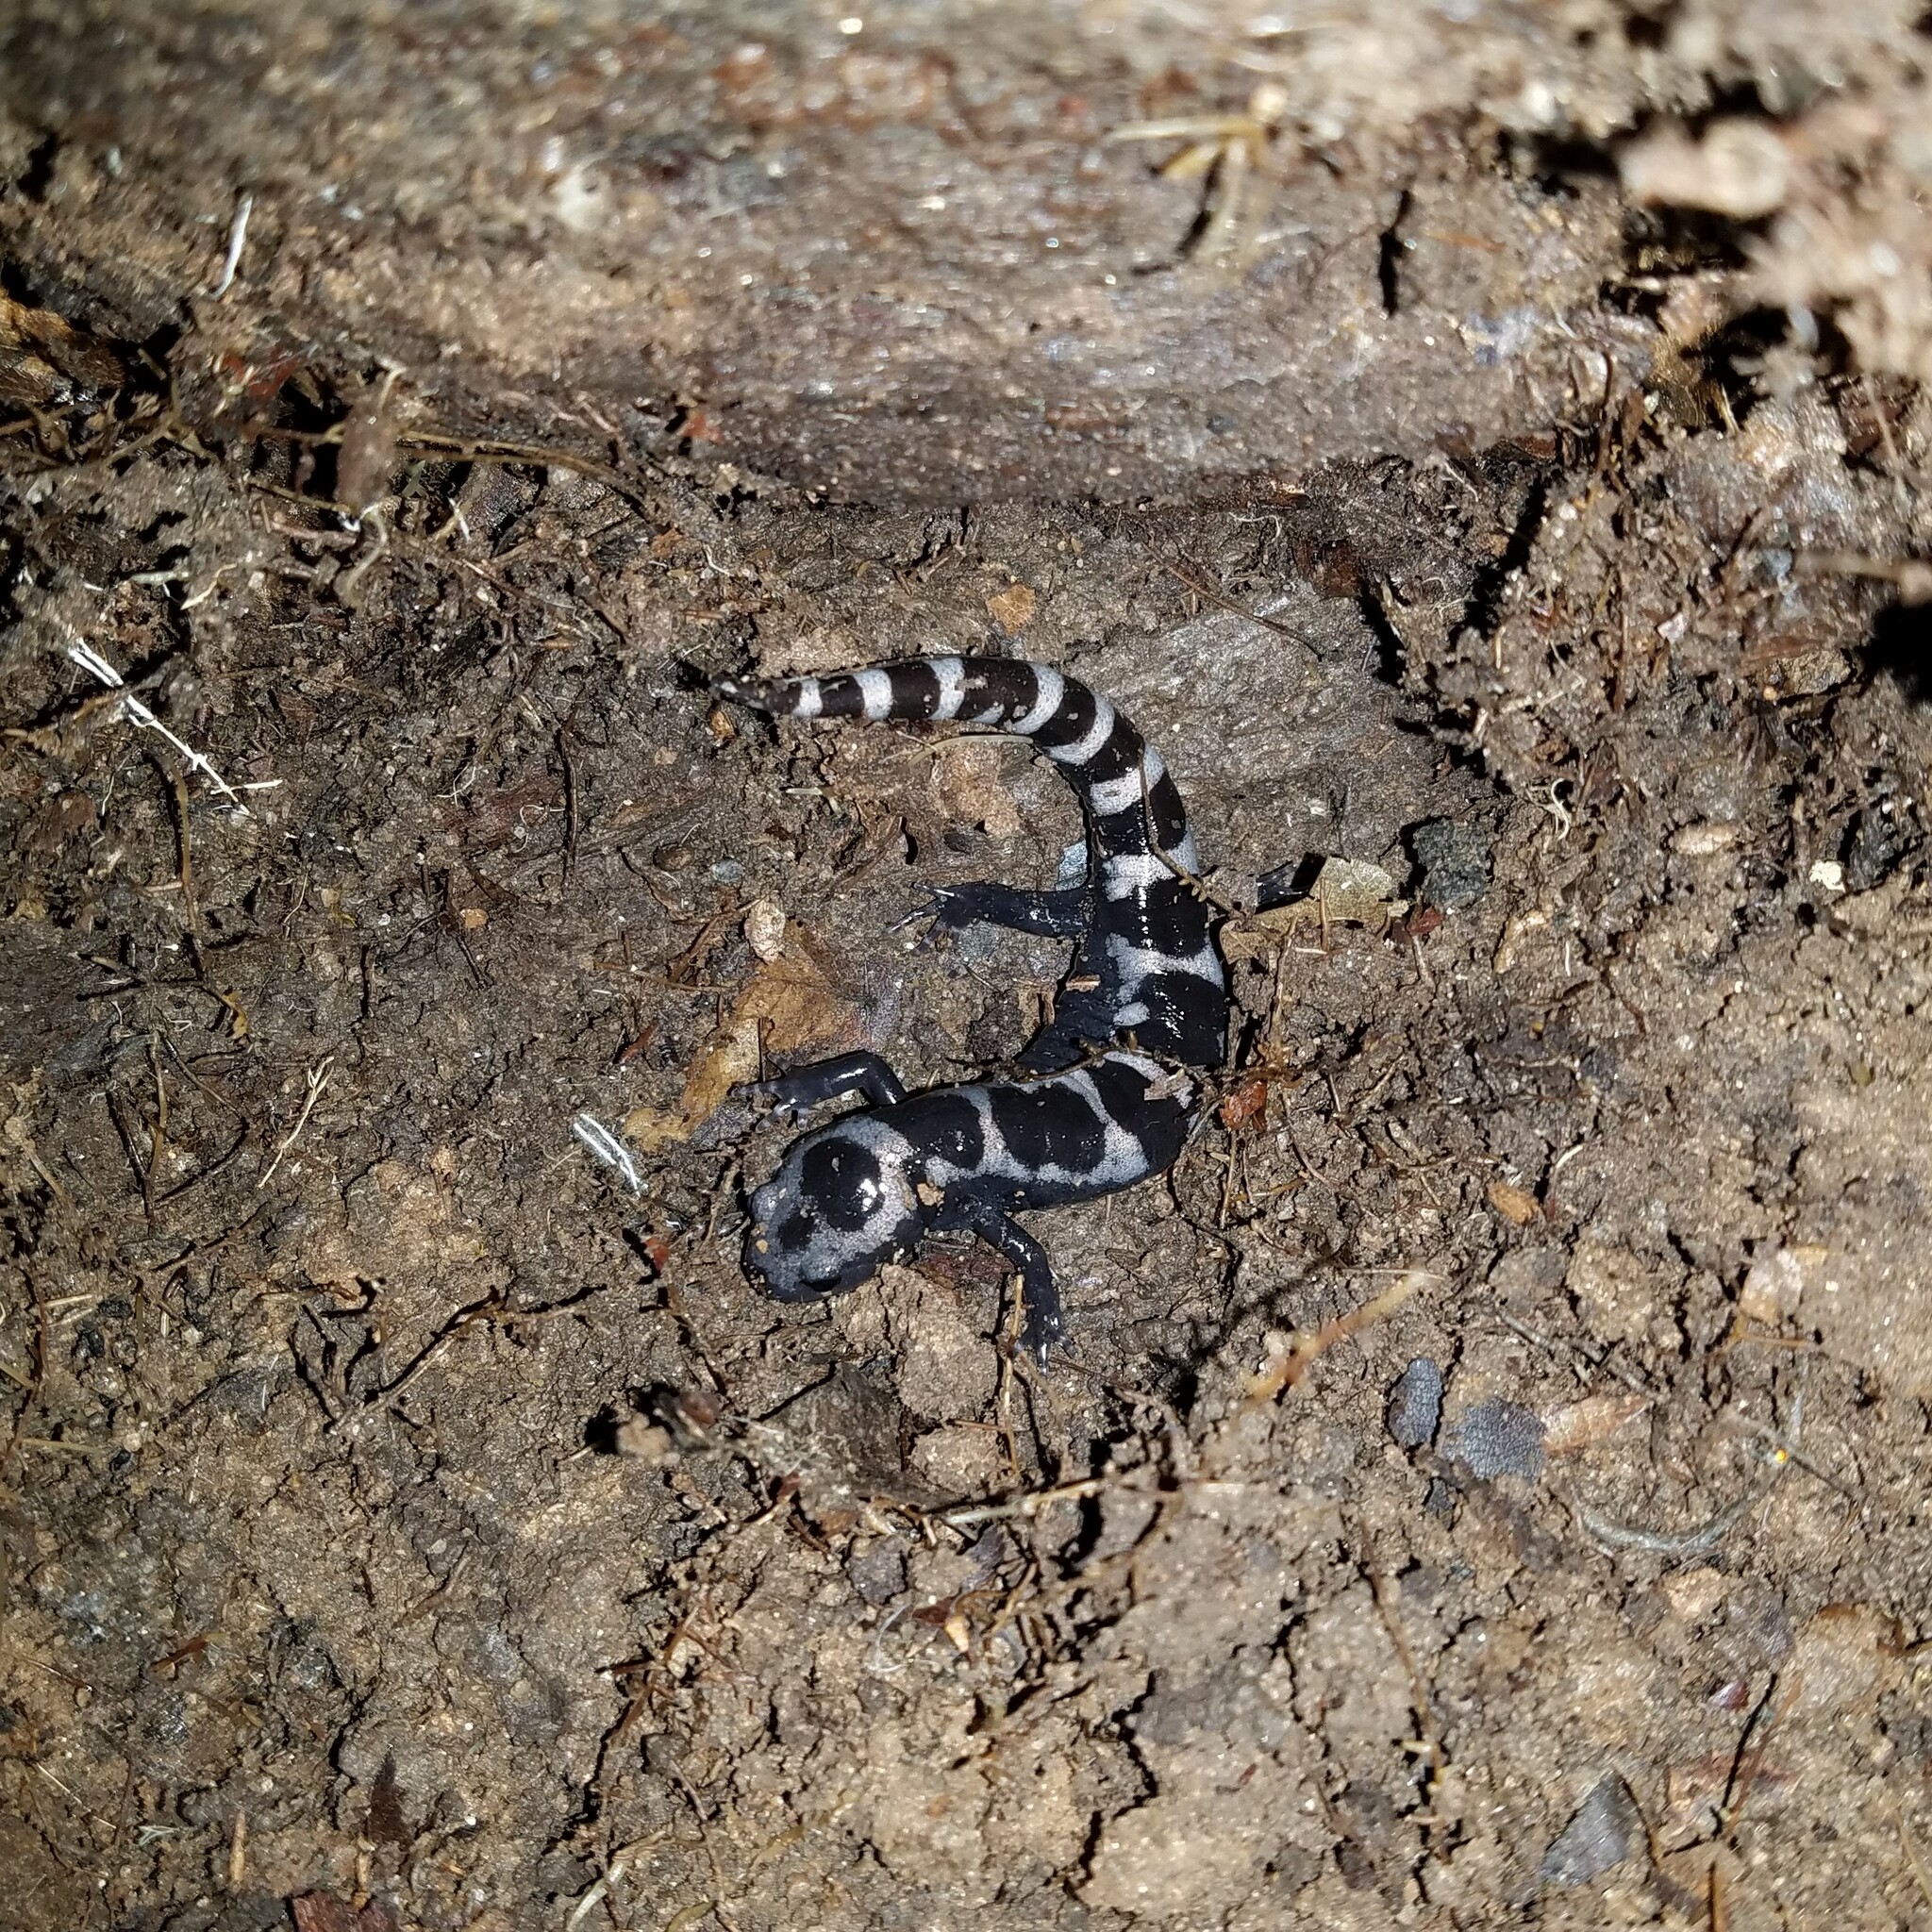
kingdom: Animalia
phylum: Chordata
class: Amphibia
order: Caudata
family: Ambystomatidae
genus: Ambystoma
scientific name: Ambystoma opacum
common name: Marbled salamander
